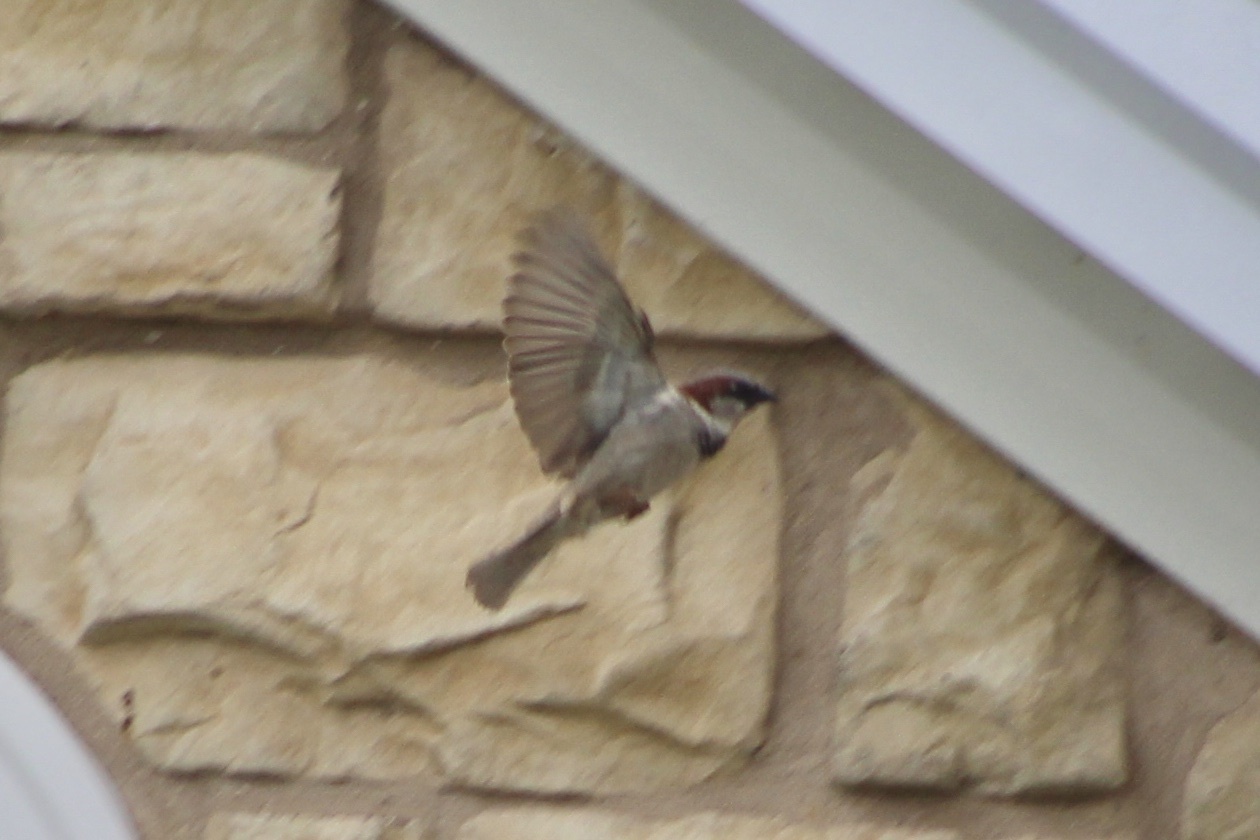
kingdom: Animalia
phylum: Chordata
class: Aves
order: Passeriformes
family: Passeridae
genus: Passer
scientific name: Passer domesticus
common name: House sparrow
